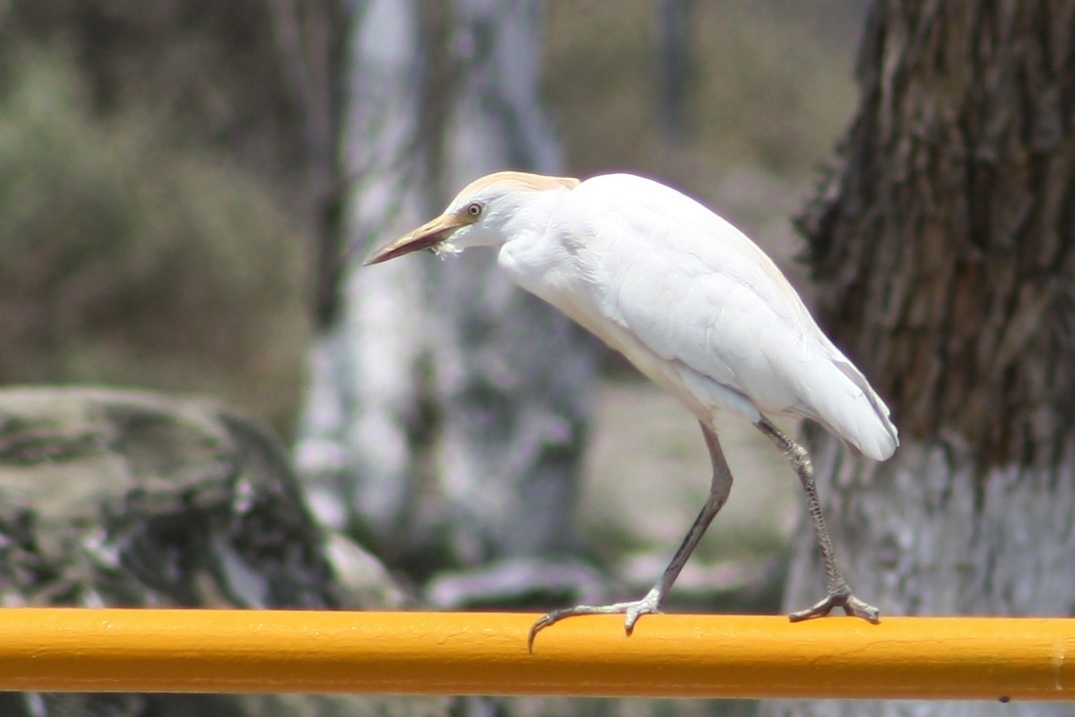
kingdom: Animalia
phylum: Chordata
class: Aves
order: Pelecaniformes
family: Ardeidae
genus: Bubulcus
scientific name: Bubulcus ibis
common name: Cattle egret
